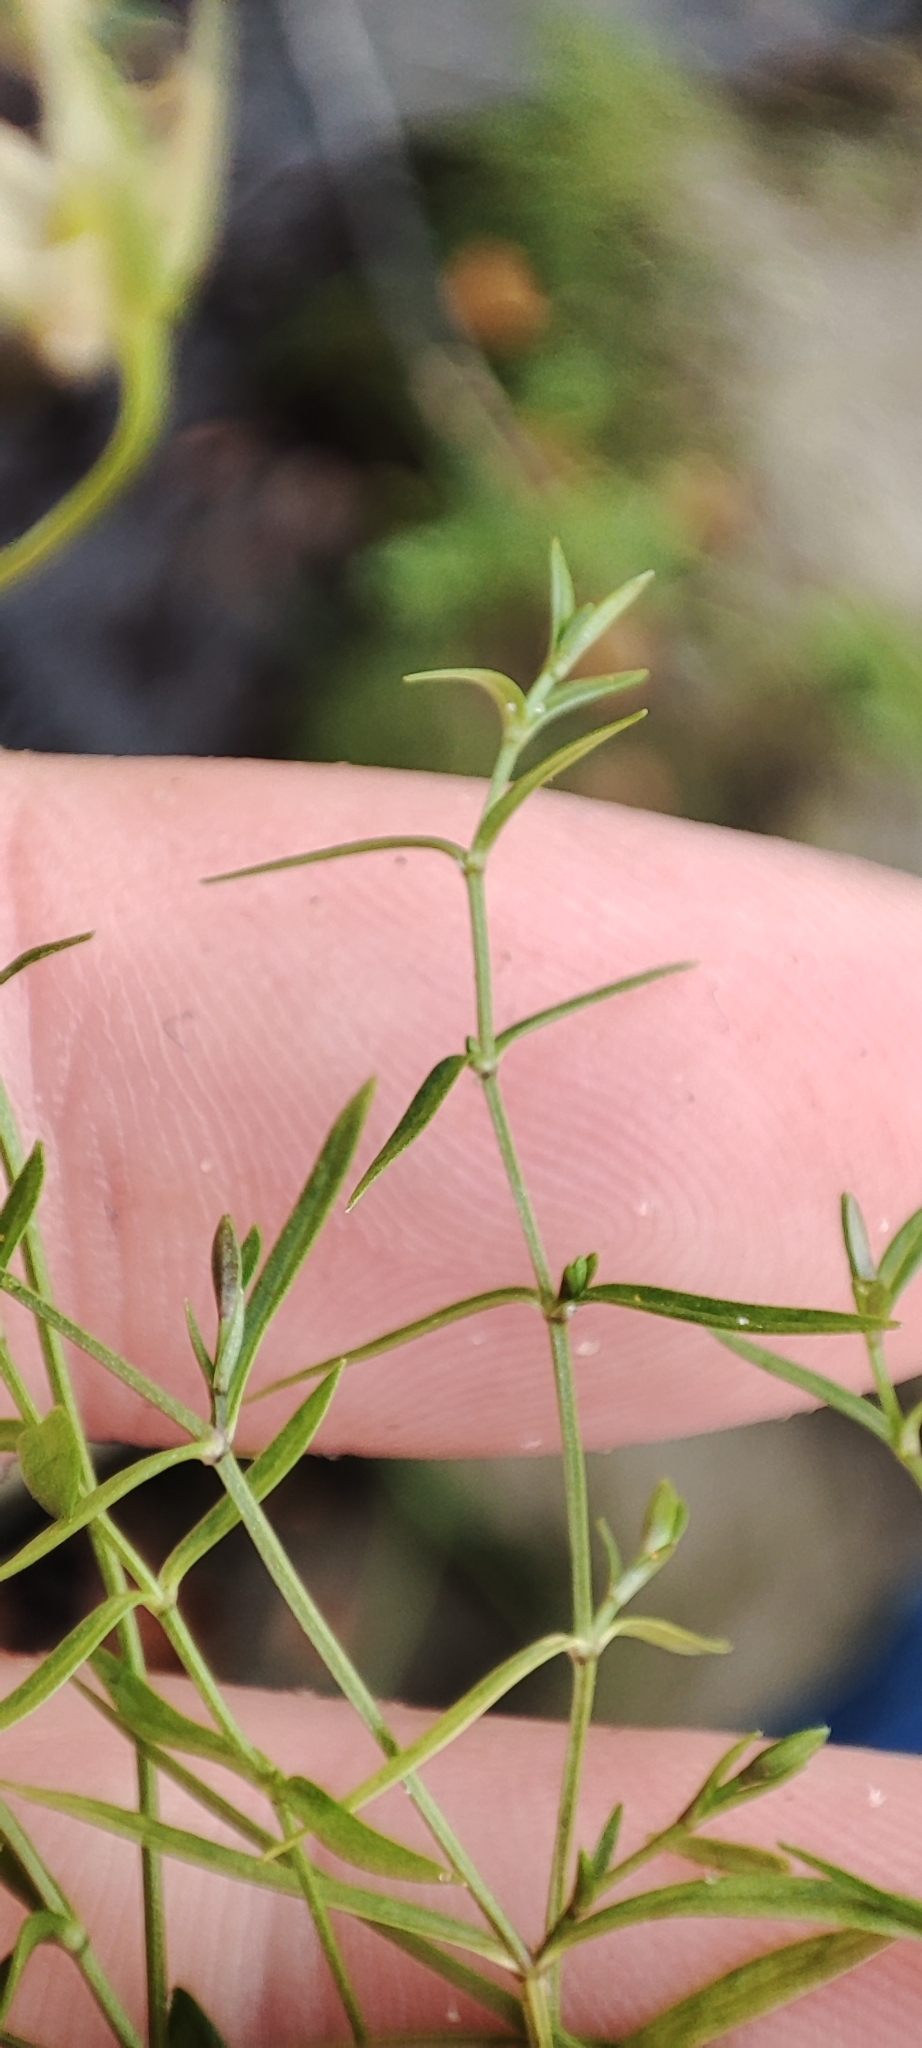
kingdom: Plantae
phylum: Tracheophyta
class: Magnoliopsida
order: Caryophyllales
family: Caryophyllaceae
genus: Stellaria
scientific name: Stellaria palustris
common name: Marsh stitchwort
